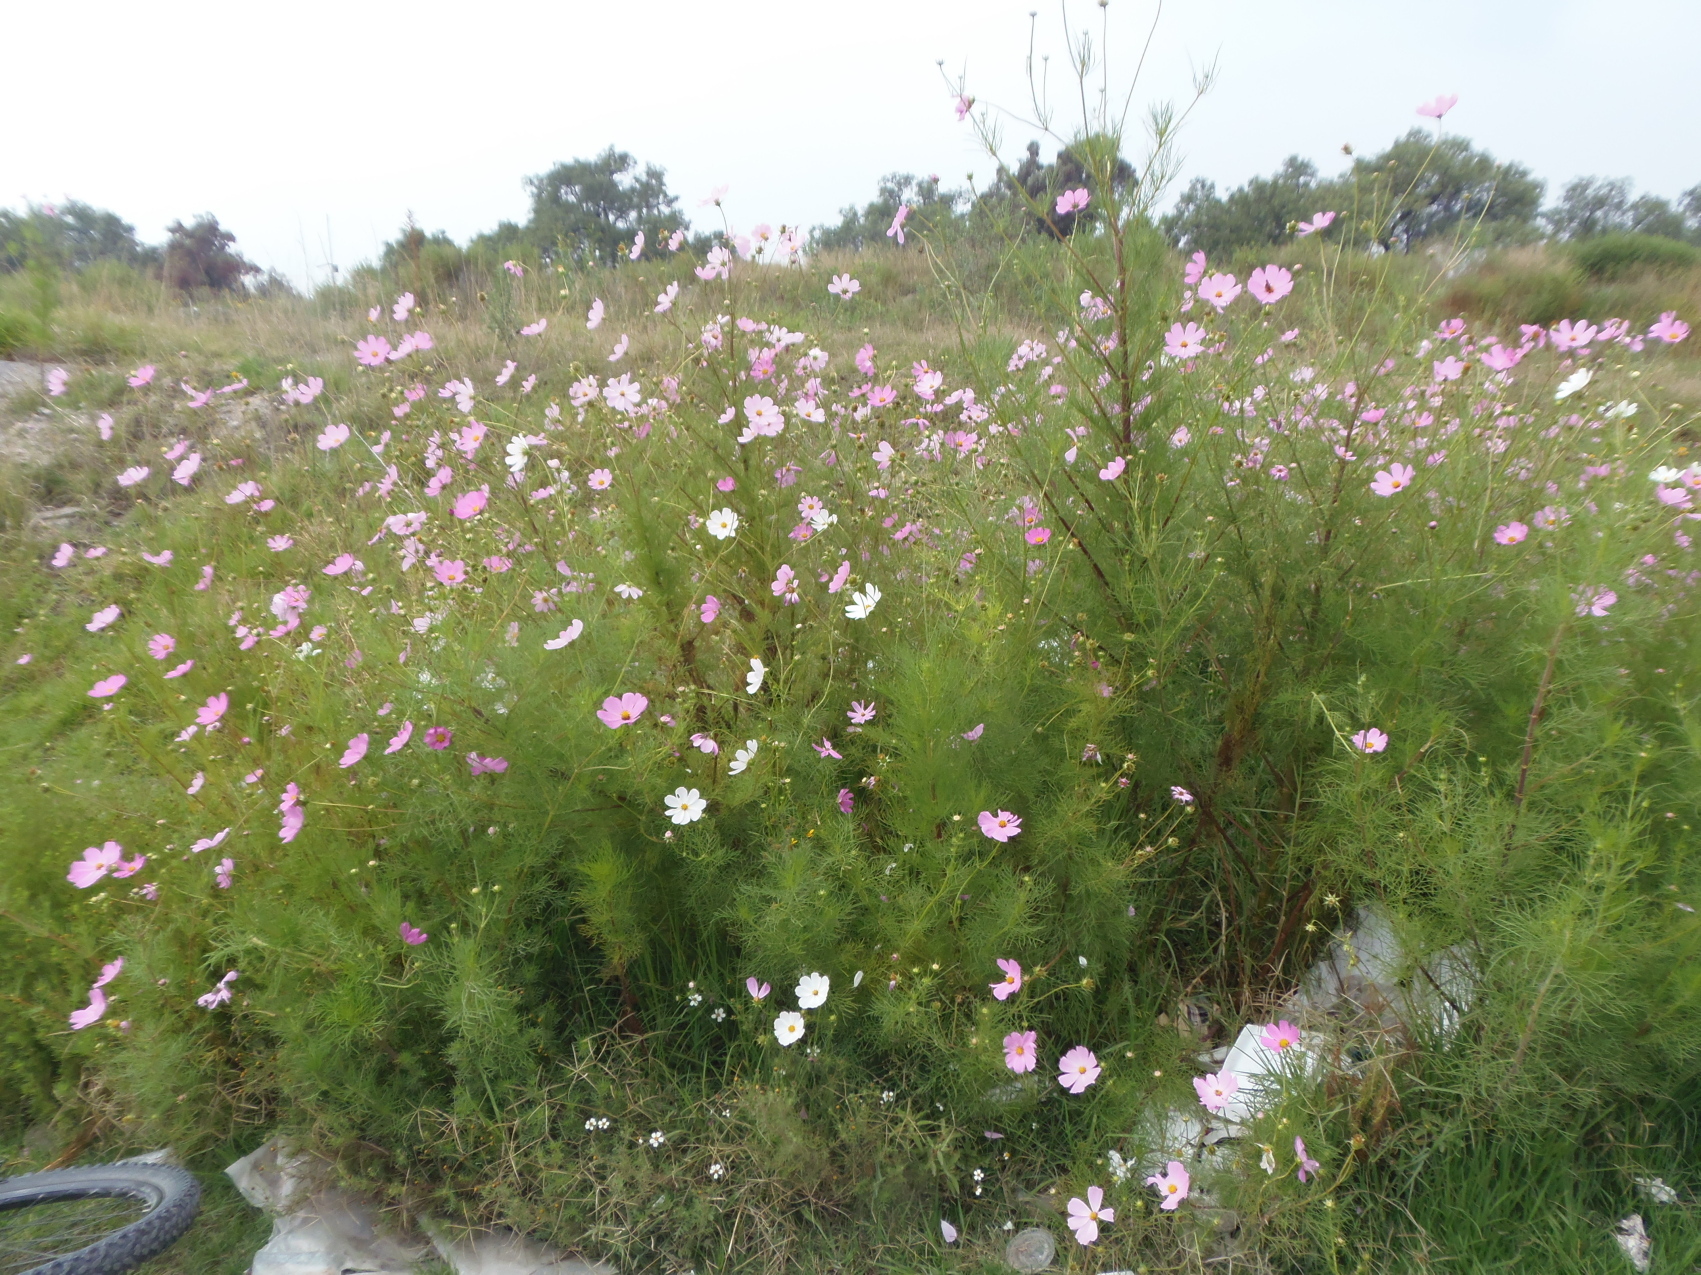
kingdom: Plantae
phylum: Tracheophyta
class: Magnoliopsida
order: Asterales
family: Asteraceae
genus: Cosmos
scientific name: Cosmos bipinnatus
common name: Garden cosmos
